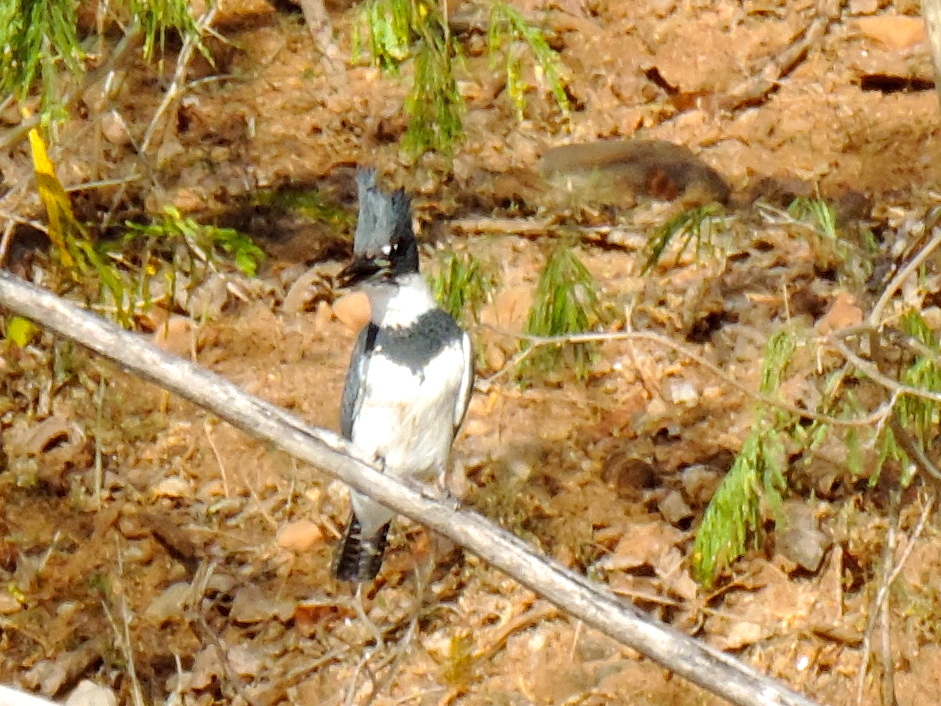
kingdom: Animalia
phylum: Chordata
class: Aves
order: Coraciiformes
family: Alcedinidae
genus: Megaceryle
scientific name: Megaceryle alcyon
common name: Belted kingfisher
